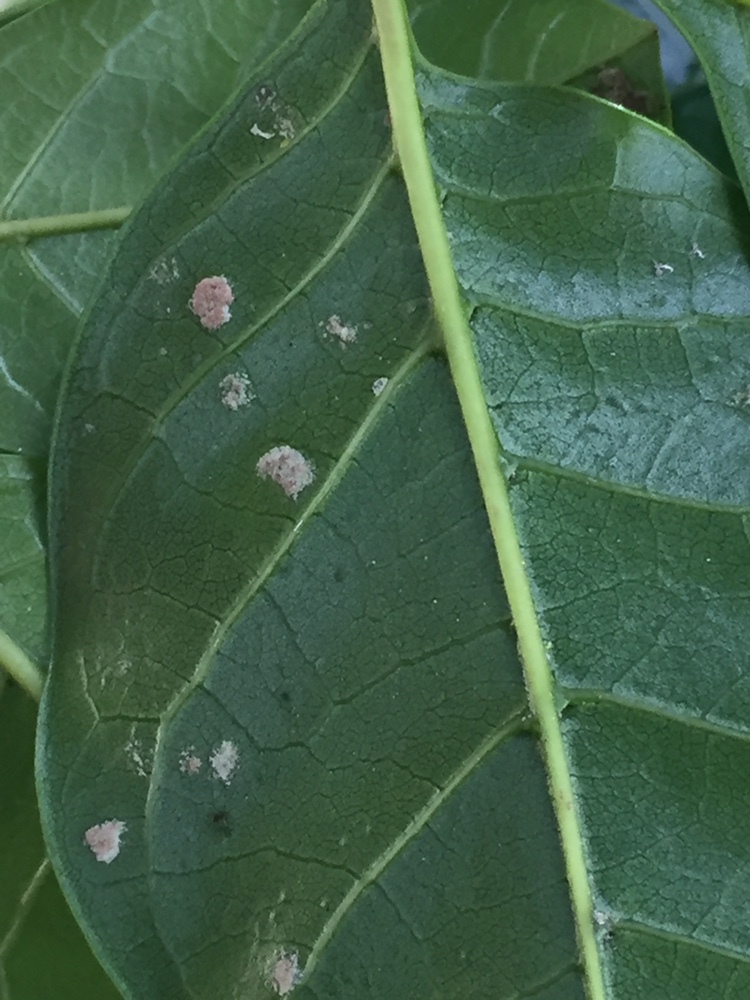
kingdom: Animalia
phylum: Arthropoda
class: Arachnida
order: Trombidiformes
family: Eriophyidae
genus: Acalitus
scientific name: Acalitus
